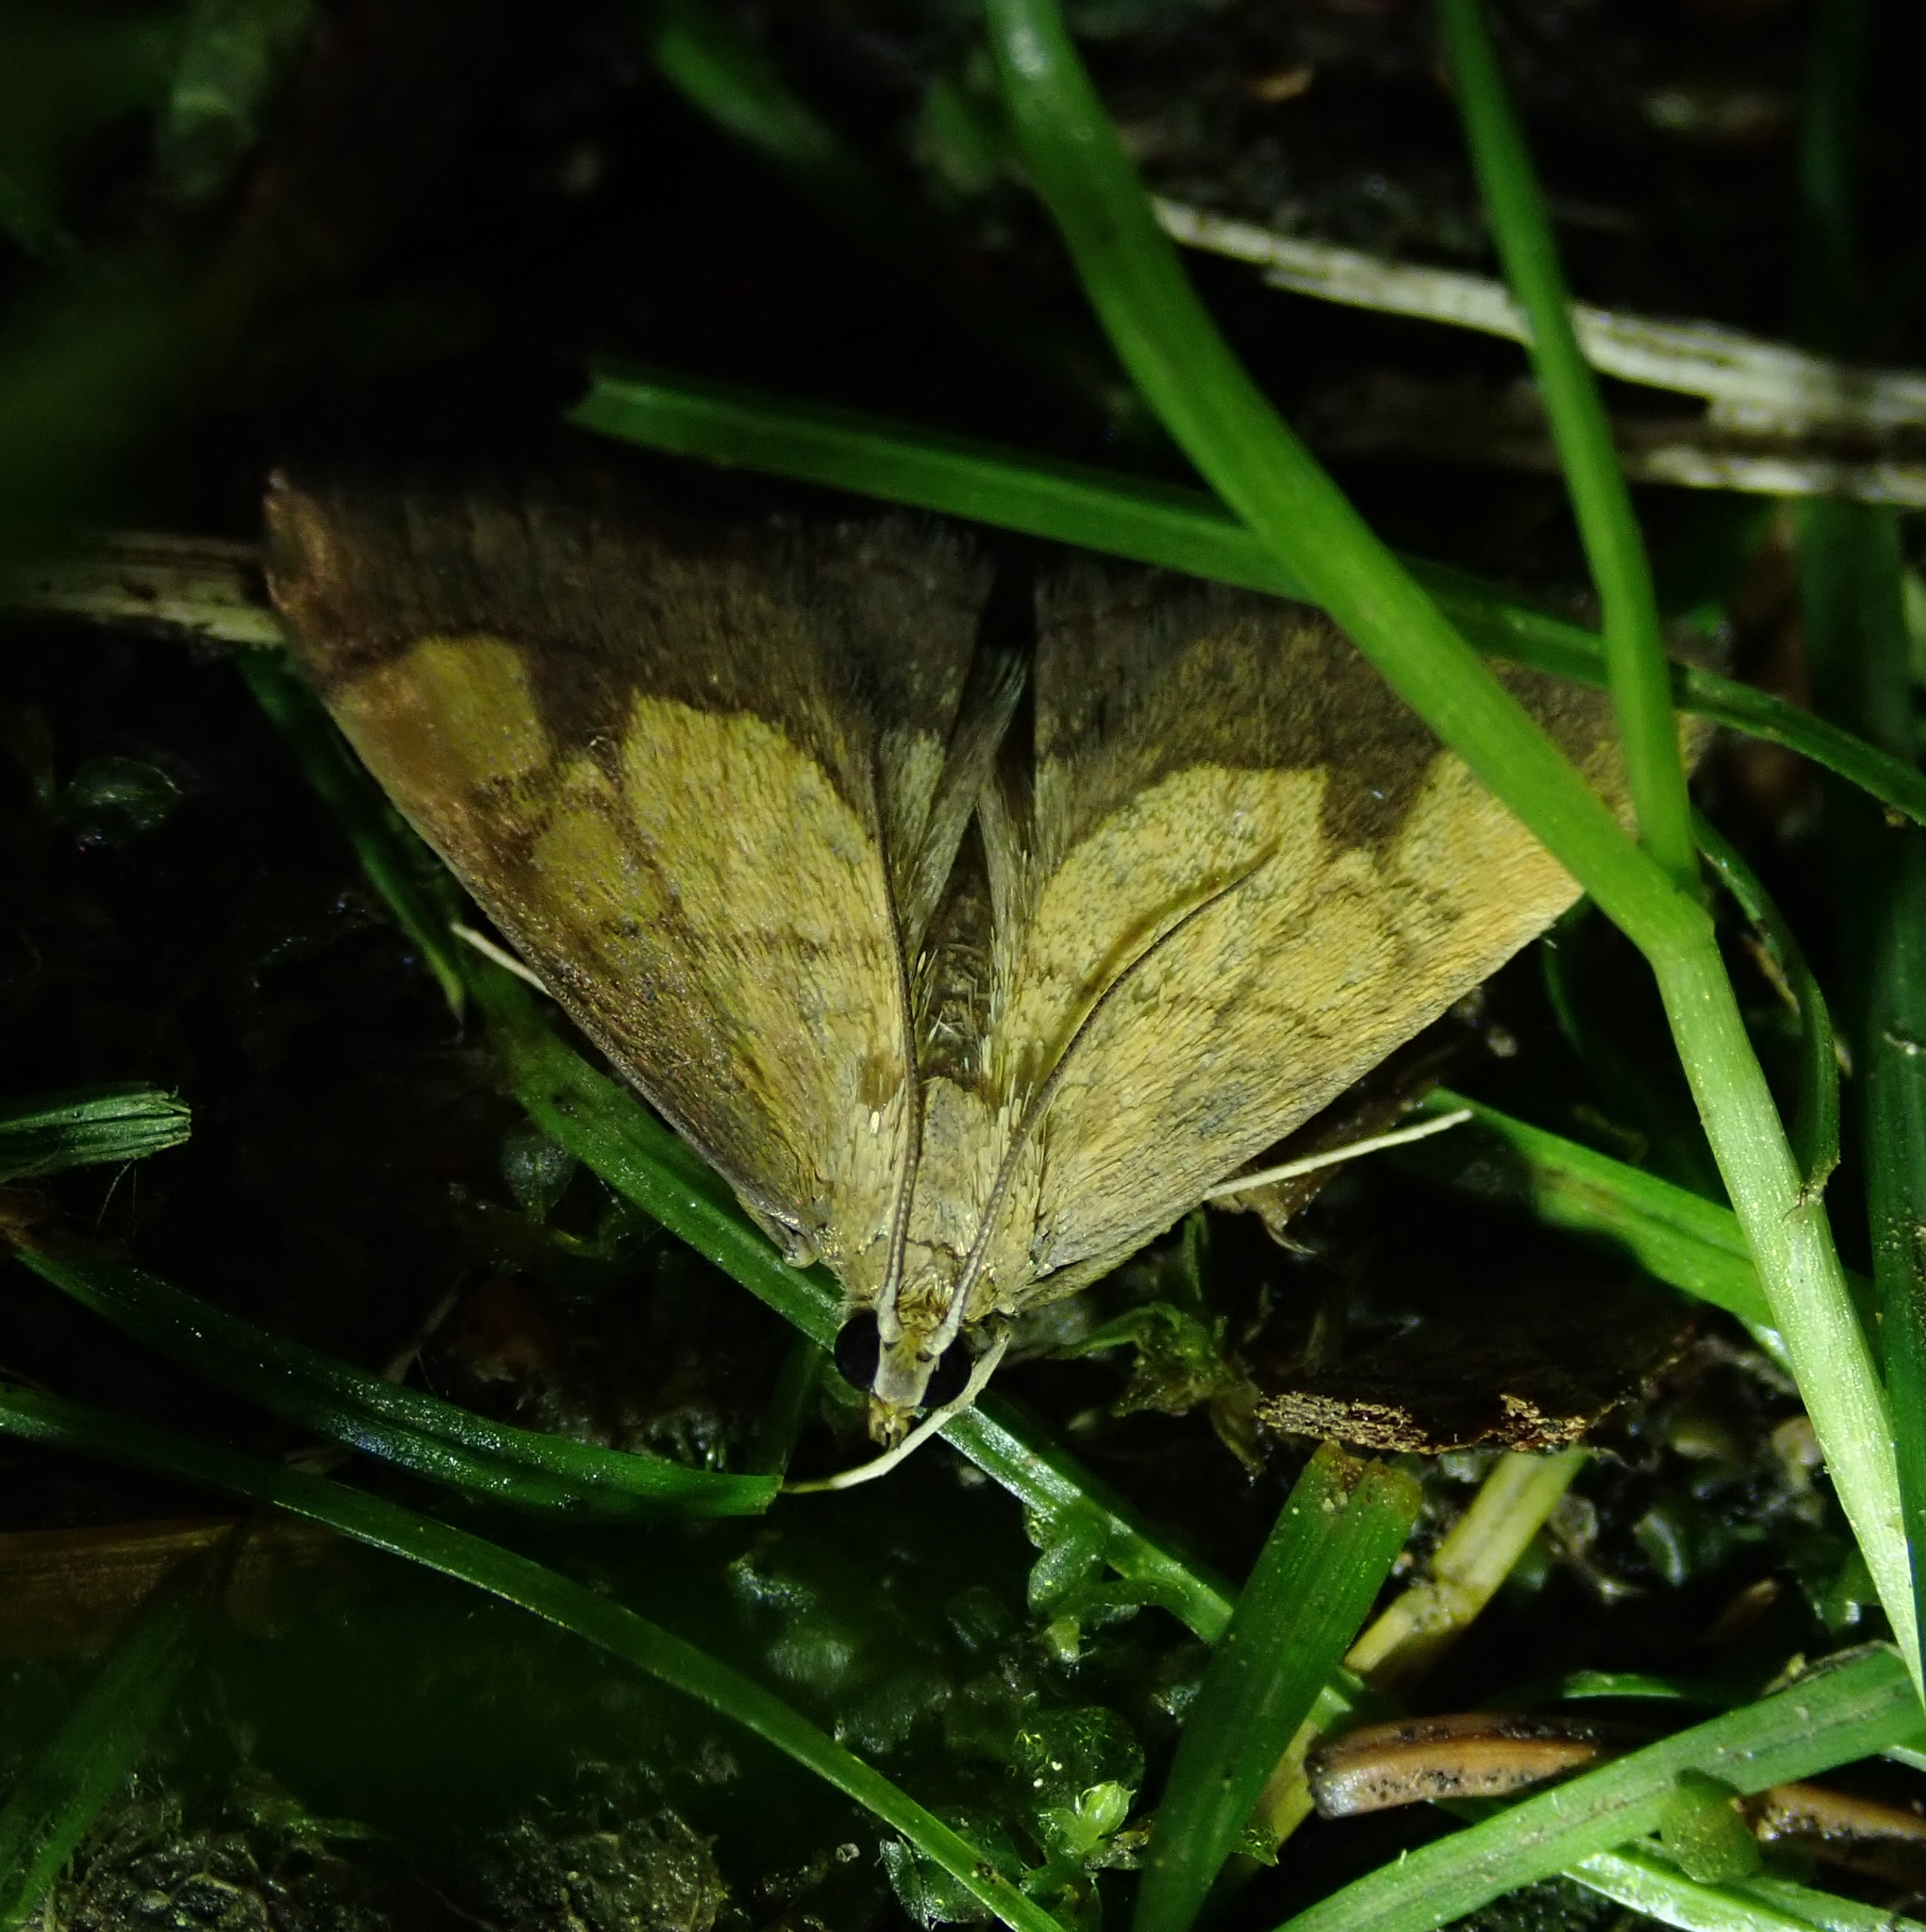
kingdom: Animalia
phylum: Arthropoda
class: Insecta
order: Lepidoptera
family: Crambidae
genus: Evergestis
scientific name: Evergestis limbata
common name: Dark bordered pearl
